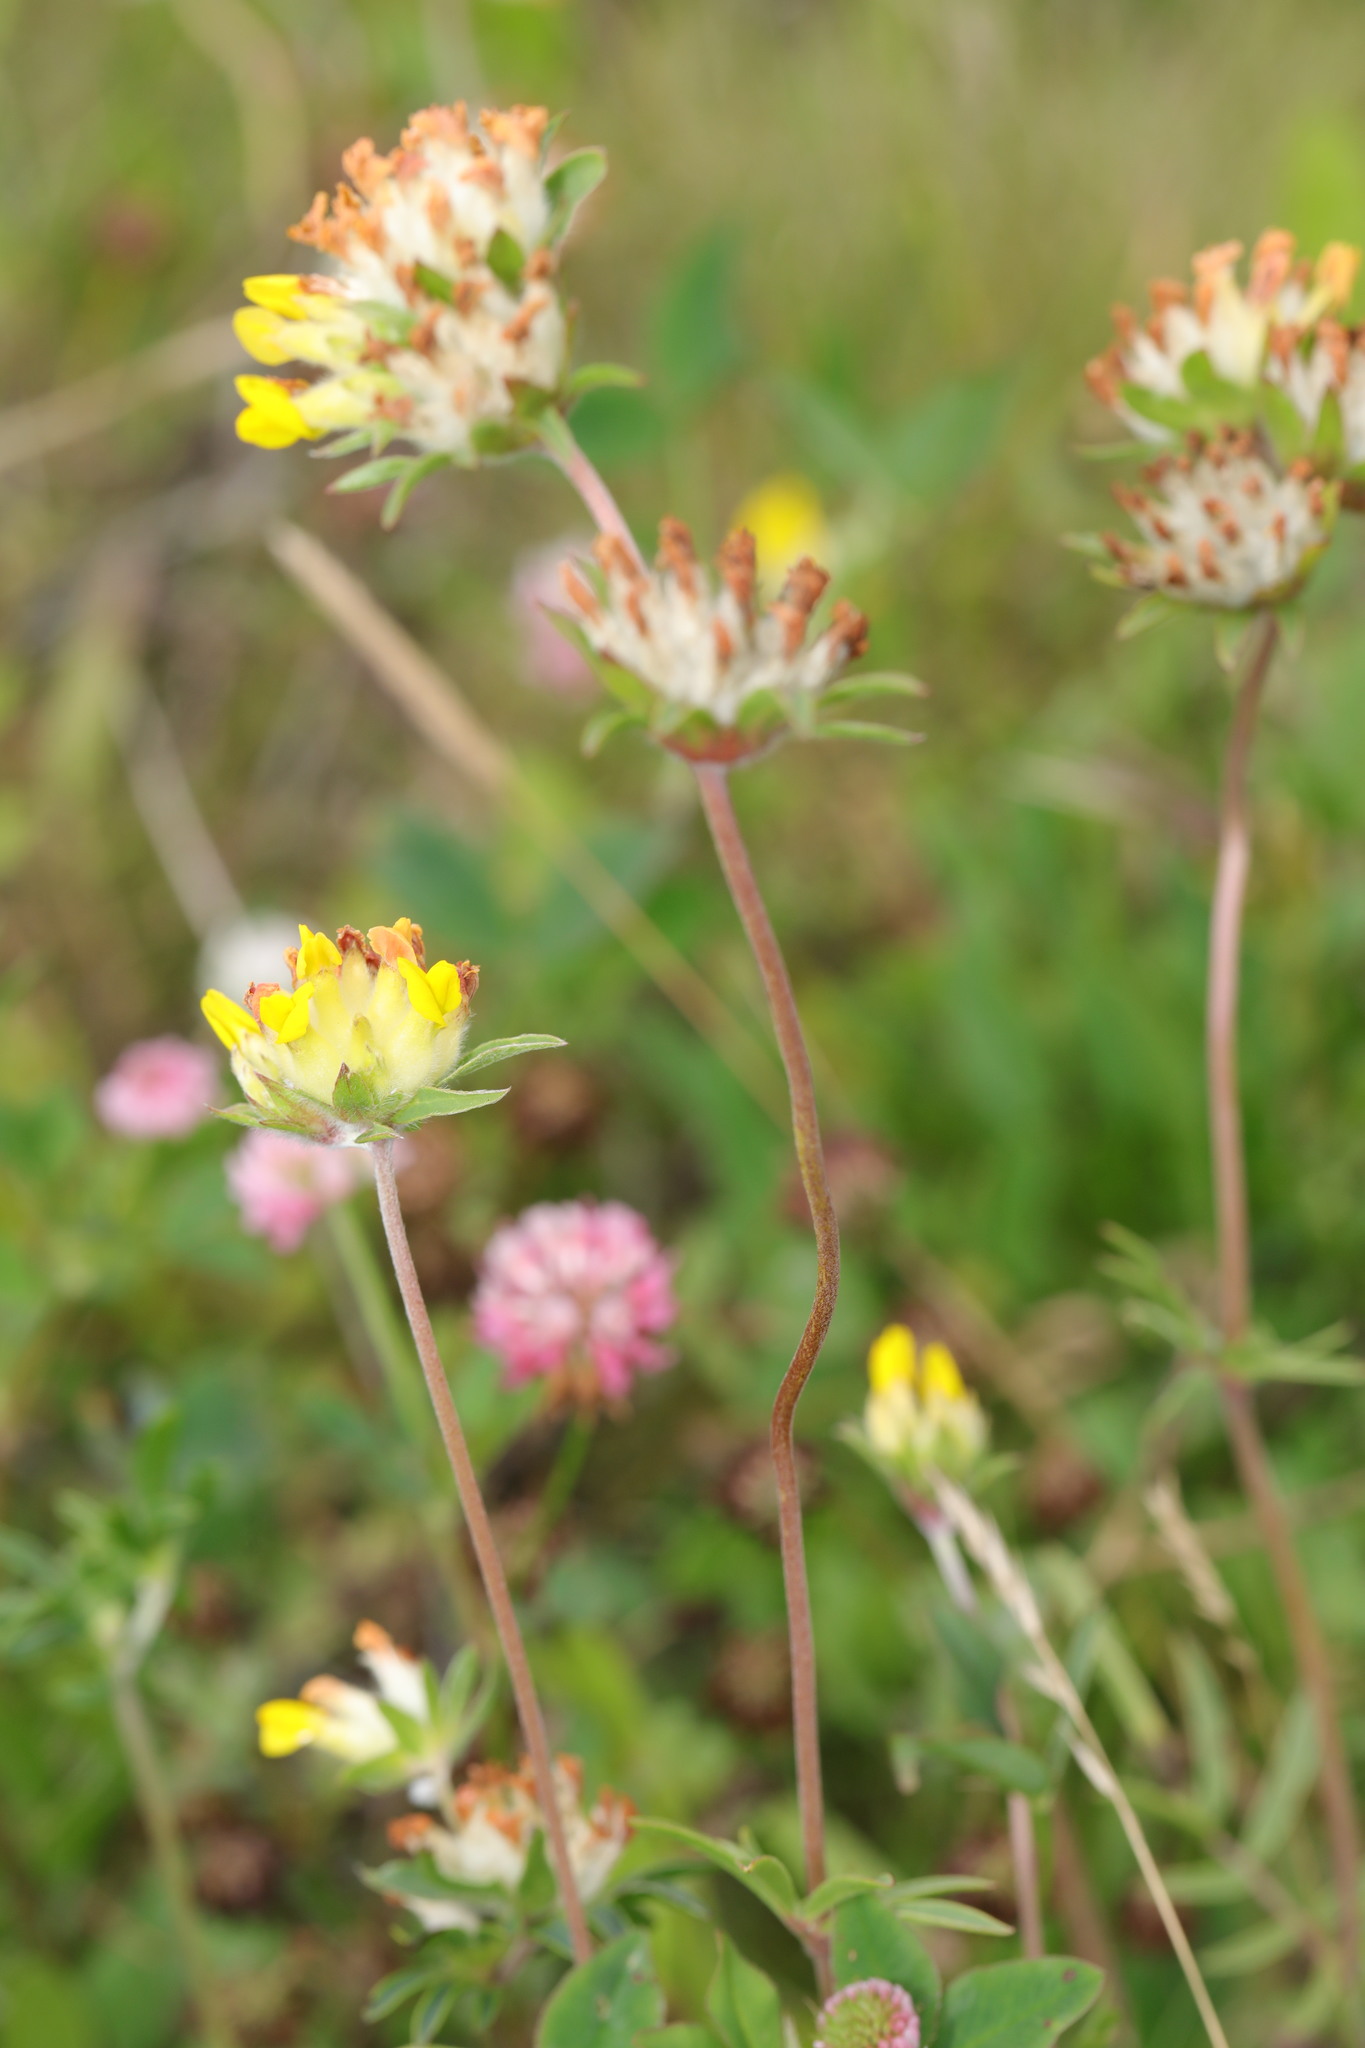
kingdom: Plantae
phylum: Tracheophyta
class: Magnoliopsida
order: Fabales
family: Fabaceae
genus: Anthyllis
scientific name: Anthyllis vulneraria
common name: Kidney vetch
